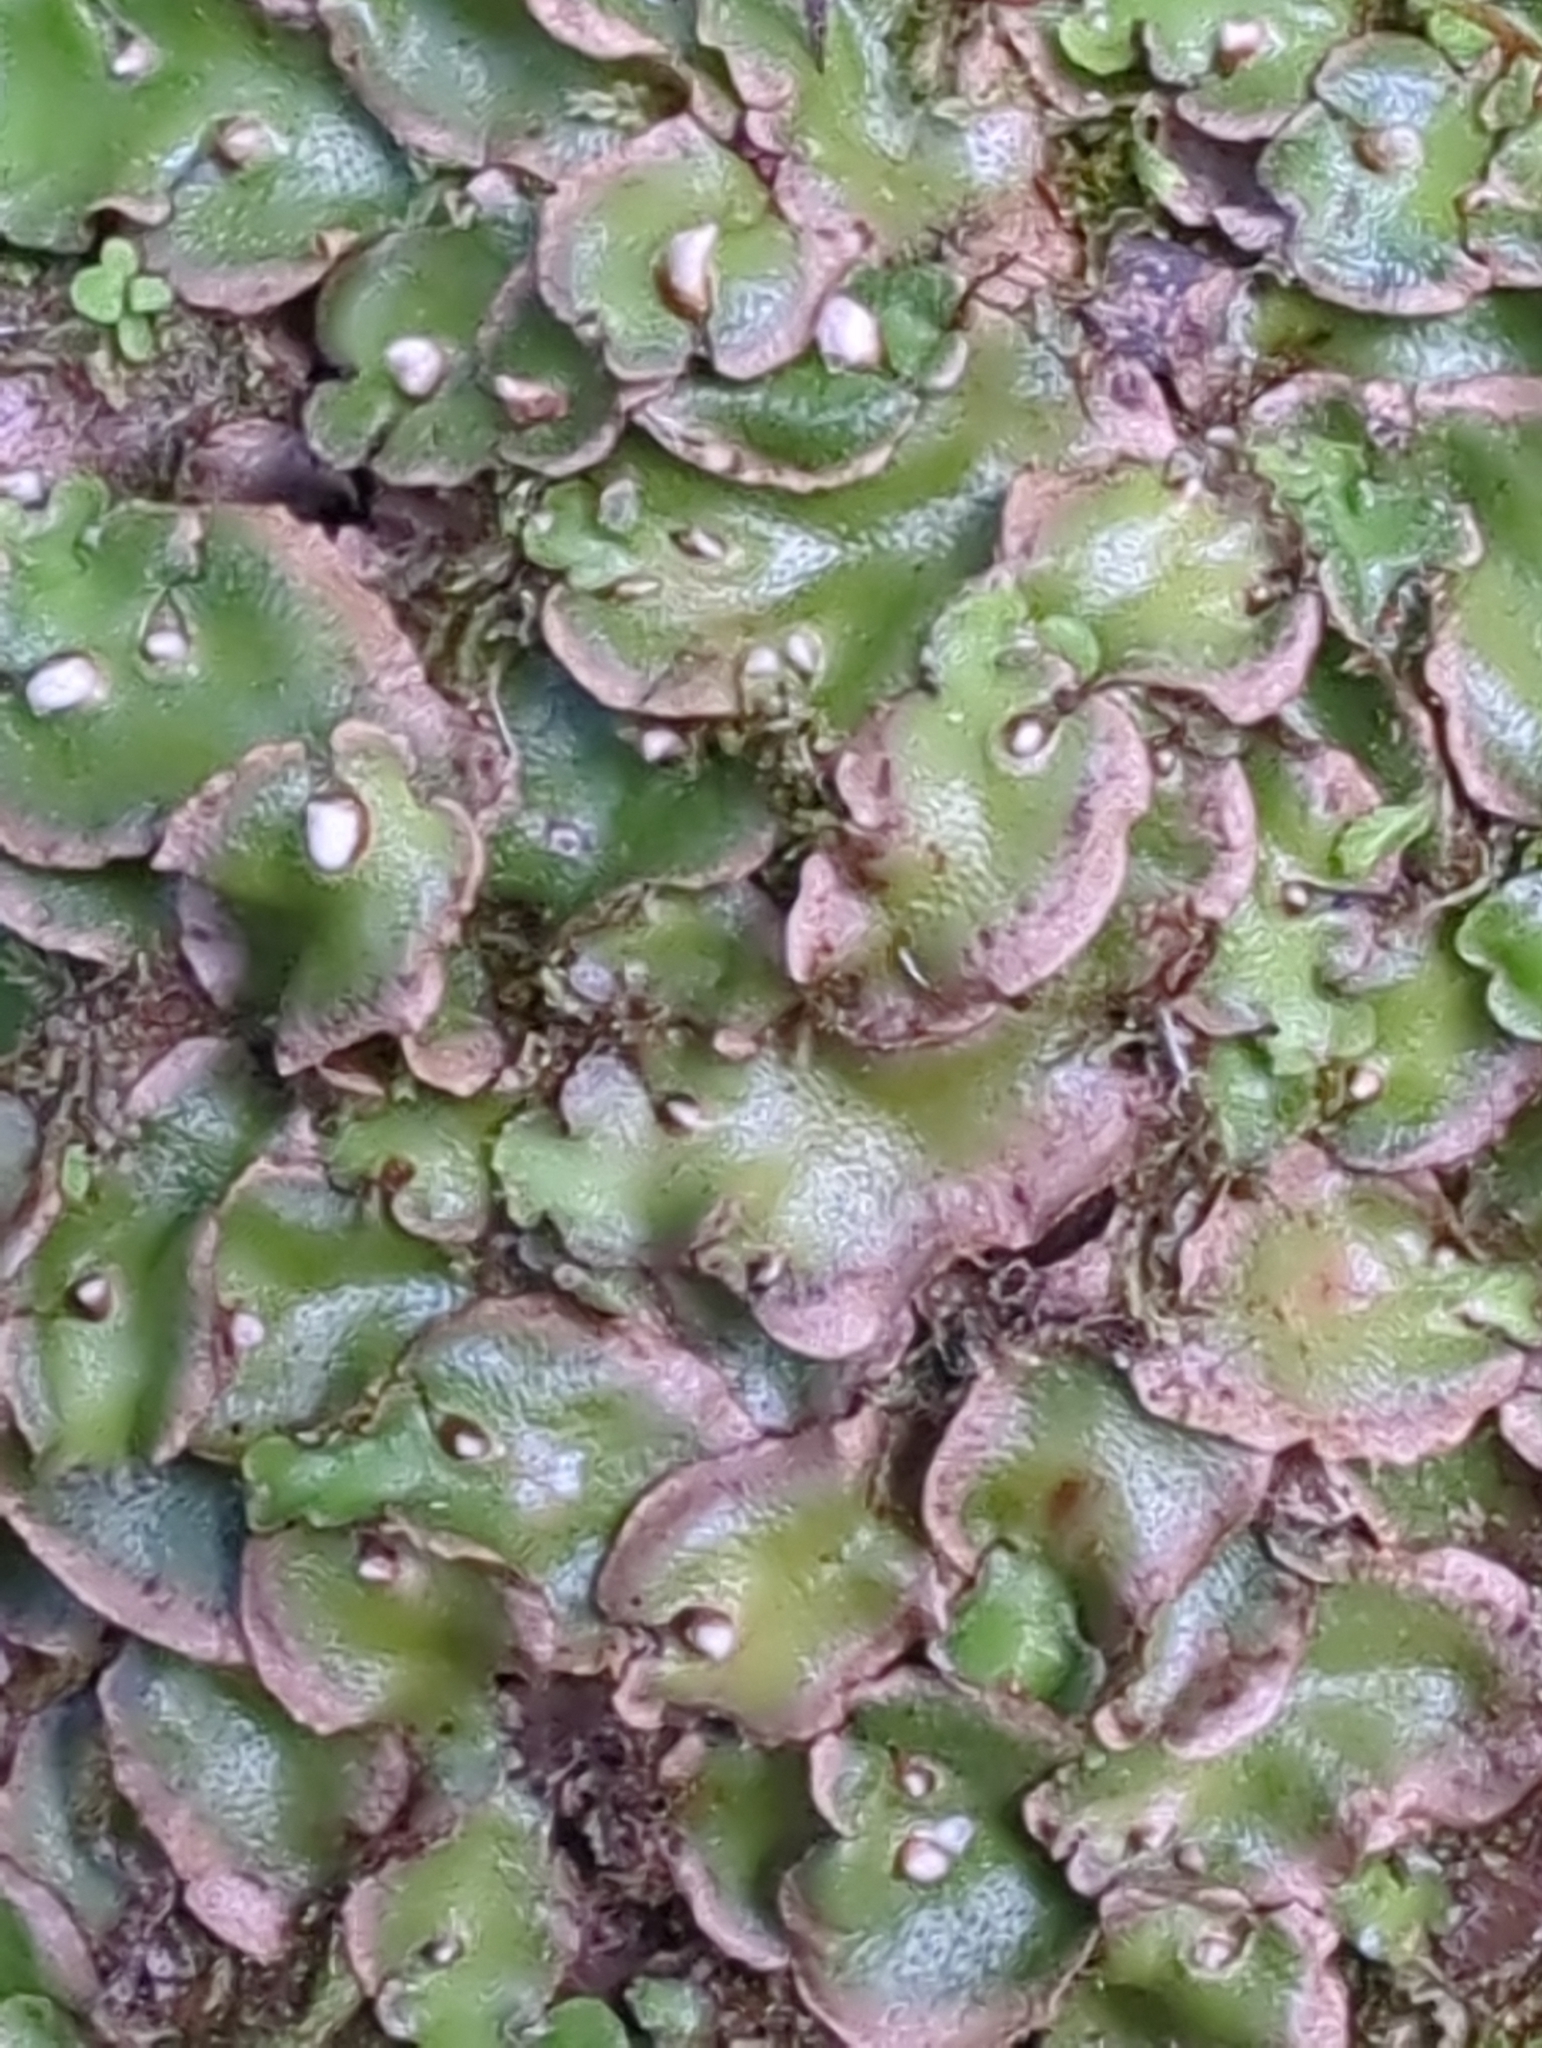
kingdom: Plantae
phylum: Marchantiophyta
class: Marchantiopsida
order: Lunulariales
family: Lunulariaceae
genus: Lunularia
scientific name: Lunularia cruciata
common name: Crescent-cup liverwort
